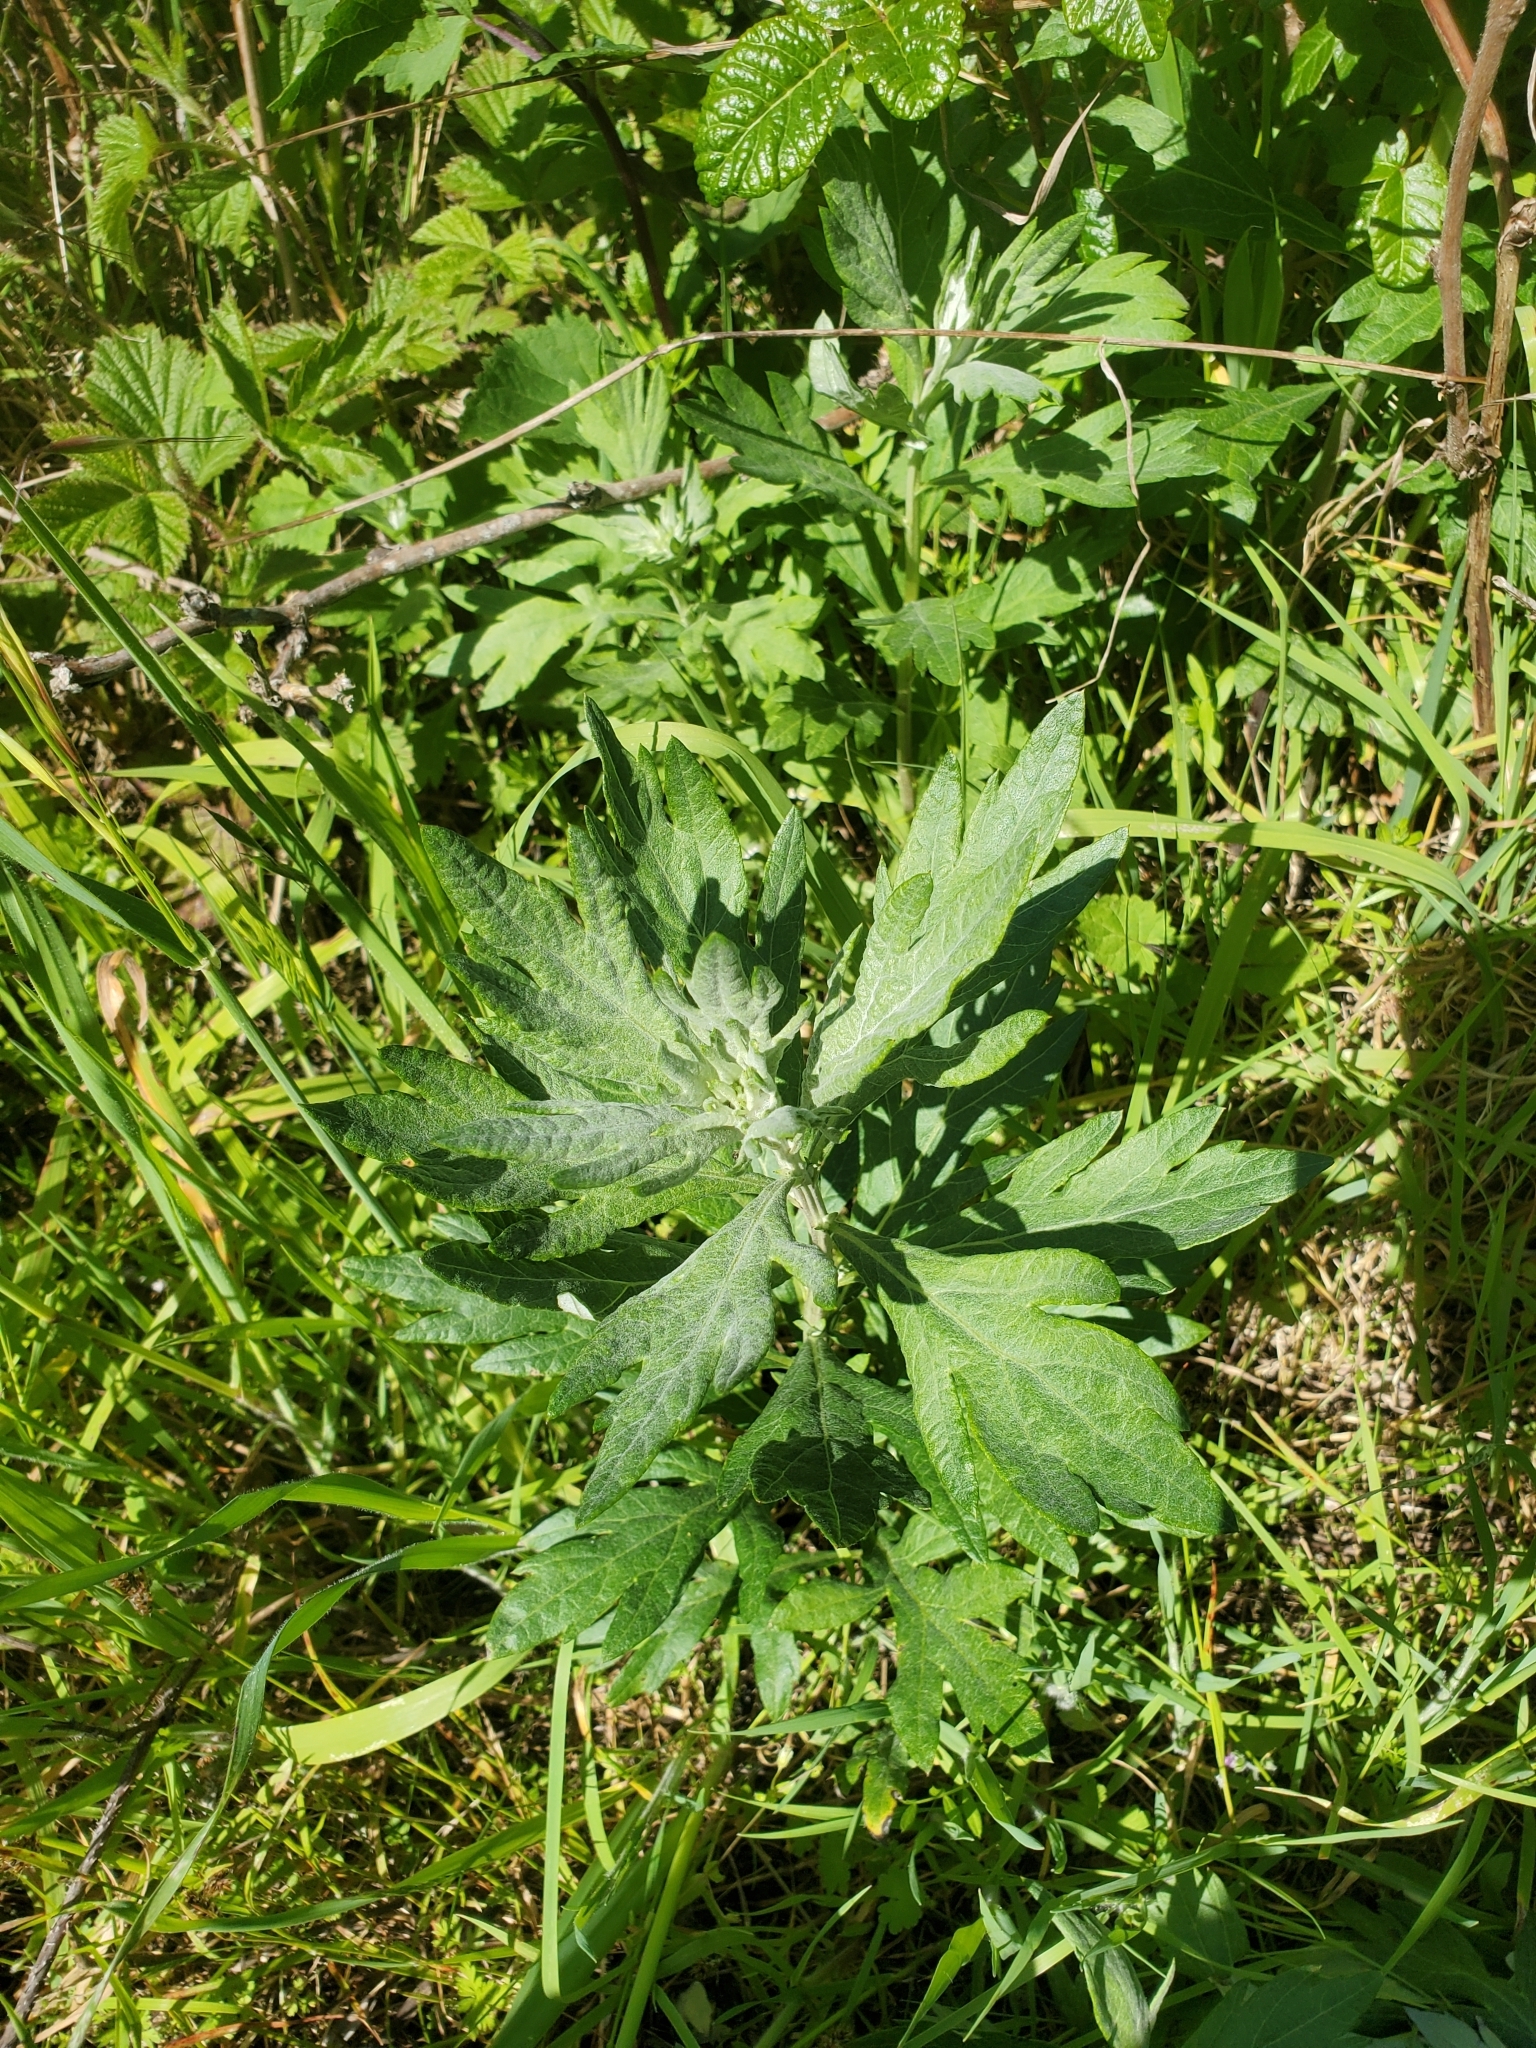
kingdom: Plantae
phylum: Tracheophyta
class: Magnoliopsida
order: Asterales
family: Asteraceae
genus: Artemisia
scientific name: Artemisia douglasiana
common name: Northwest mugwort
